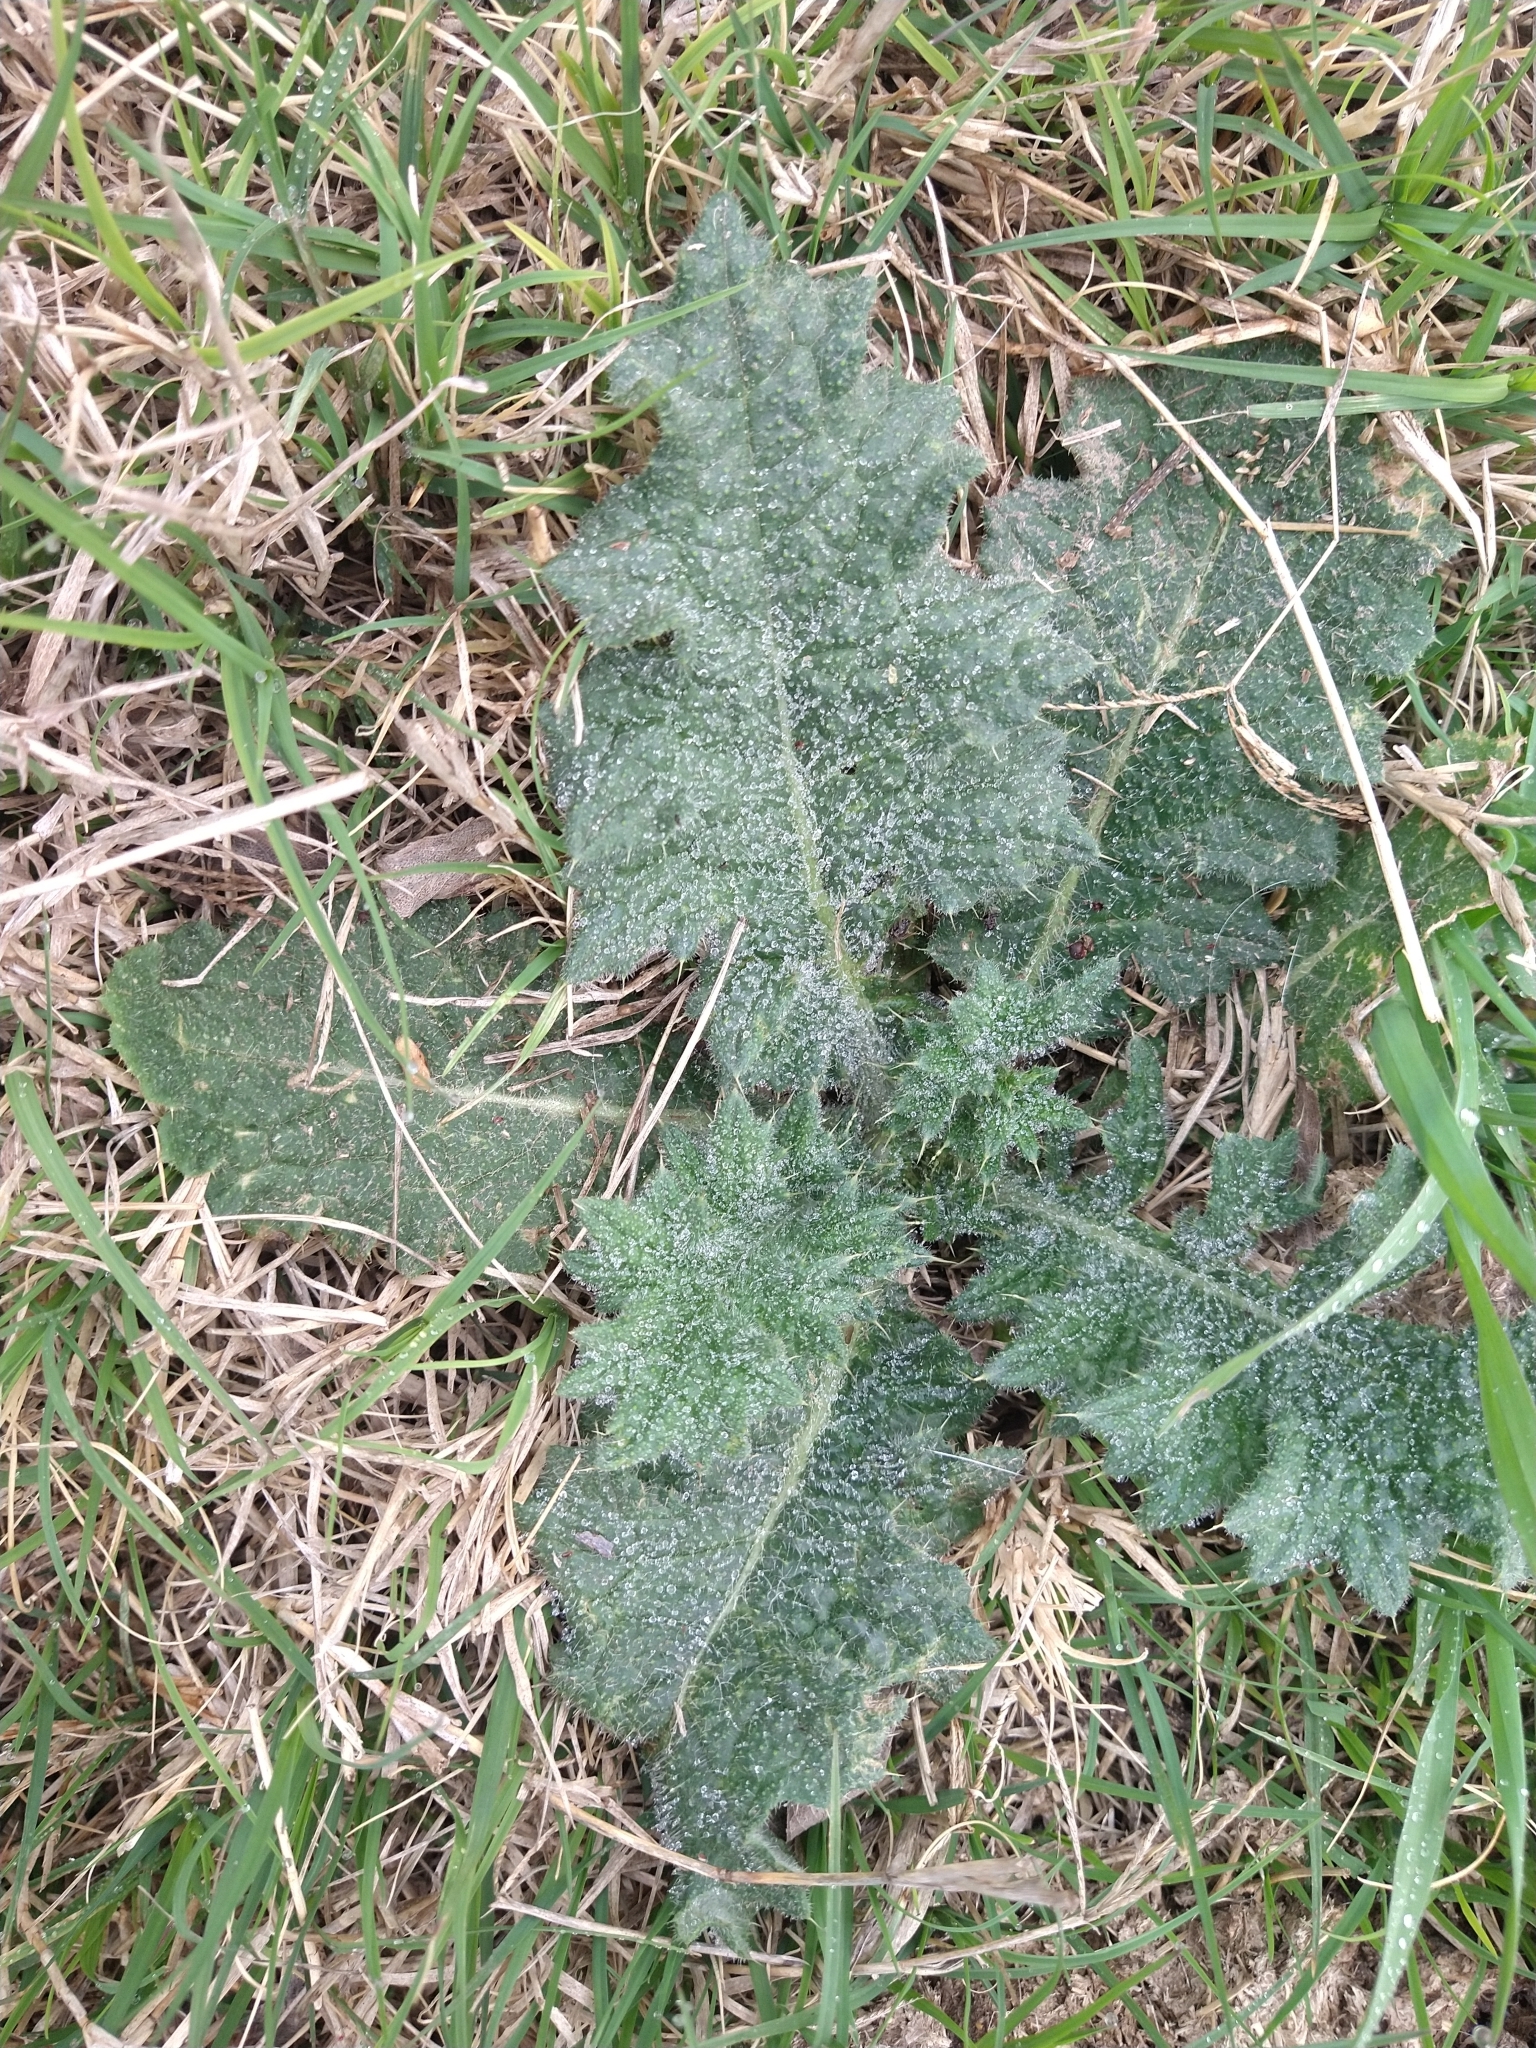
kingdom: Plantae
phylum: Tracheophyta
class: Magnoliopsida
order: Asterales
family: Asteraceae
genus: Cirsium
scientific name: Cirsium vulgare
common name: Bull thistle
